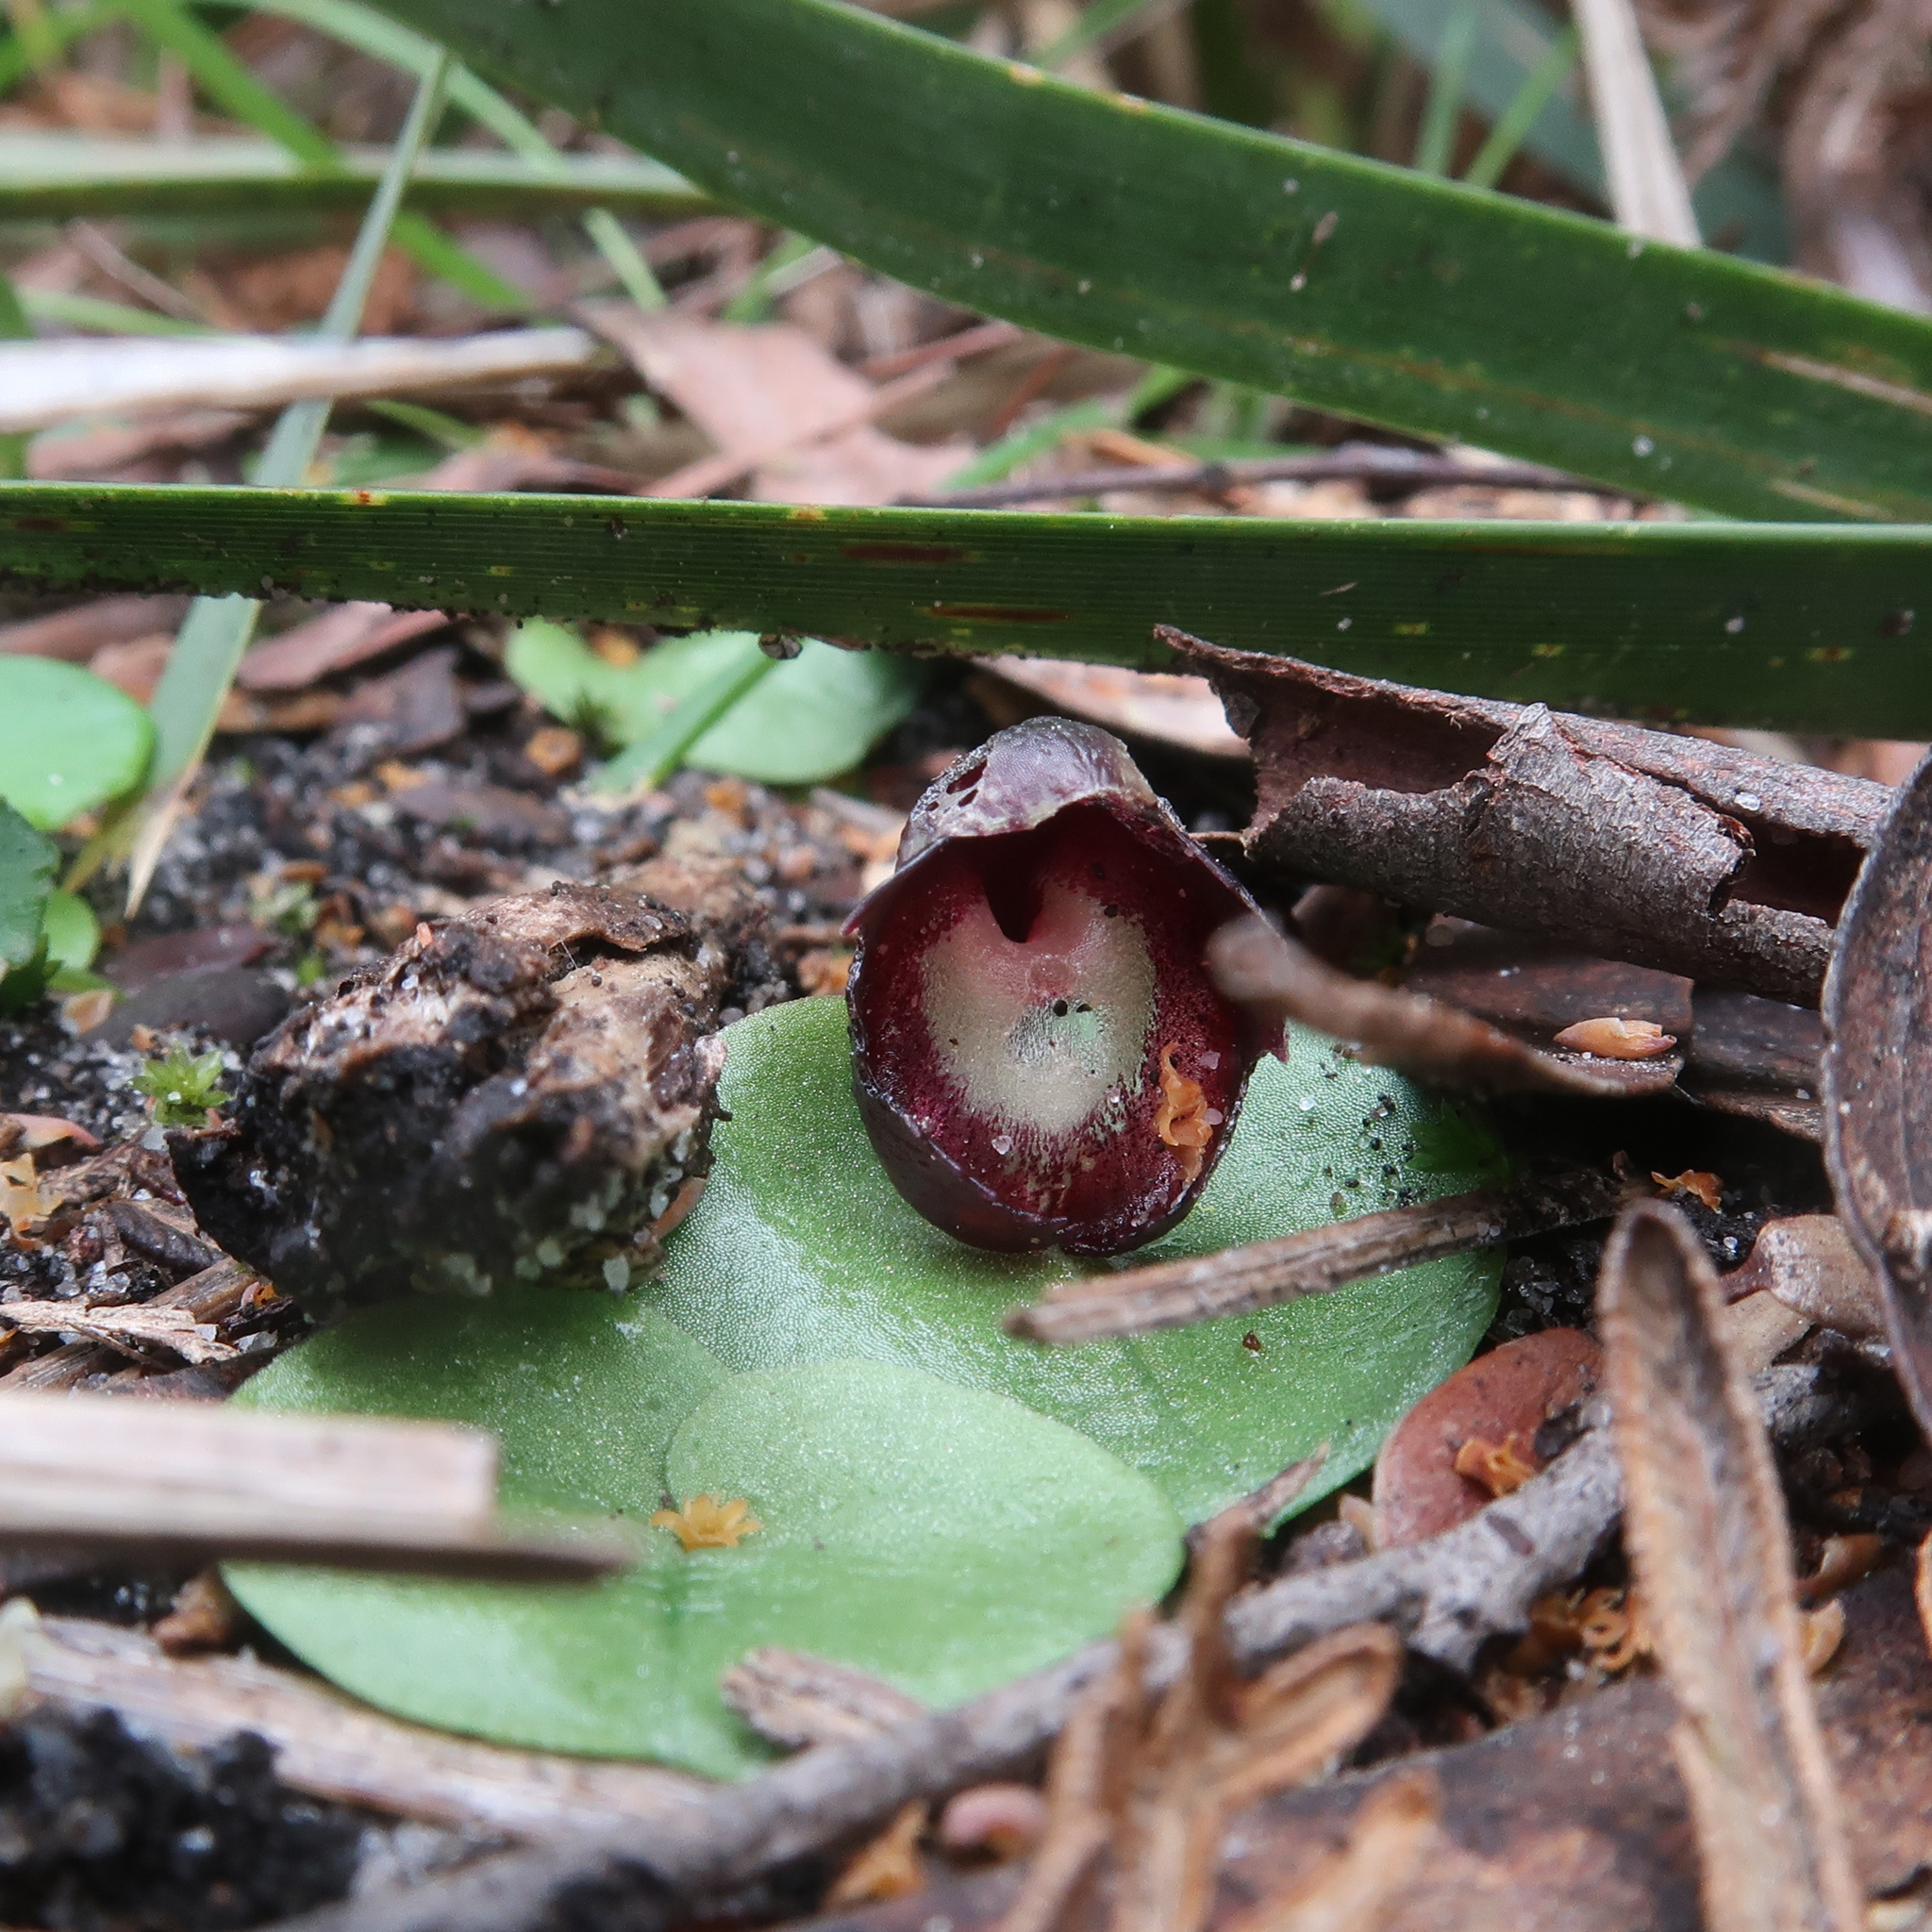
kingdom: Plantae
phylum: Tracheophyta
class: Liliopsida
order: Asparagales
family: Orchidaceae
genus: Corybas
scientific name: Corybas incurvus
